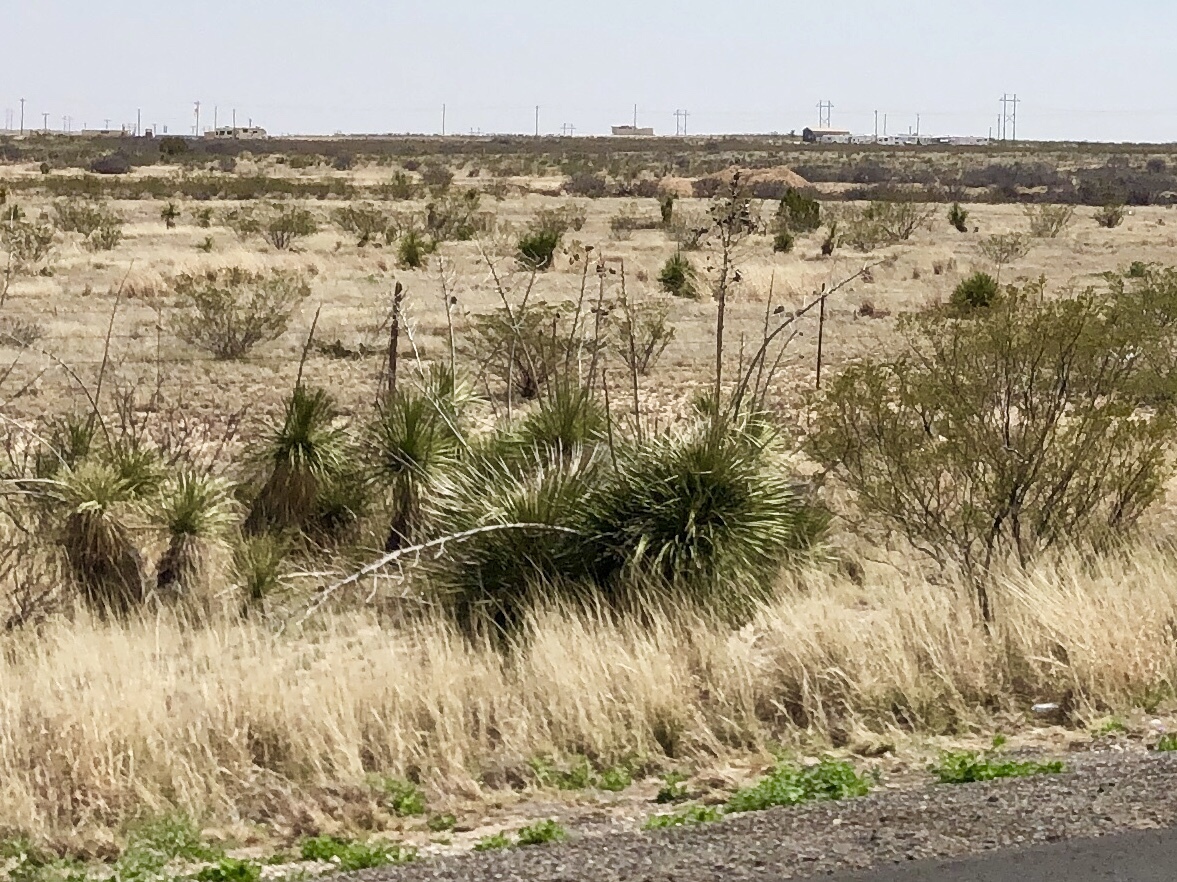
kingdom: Plantae
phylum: Tracheophyta
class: Liliopsida
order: Asparagales
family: Asparagaceae
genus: Yucca
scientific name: Yucca elata
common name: Palmella
